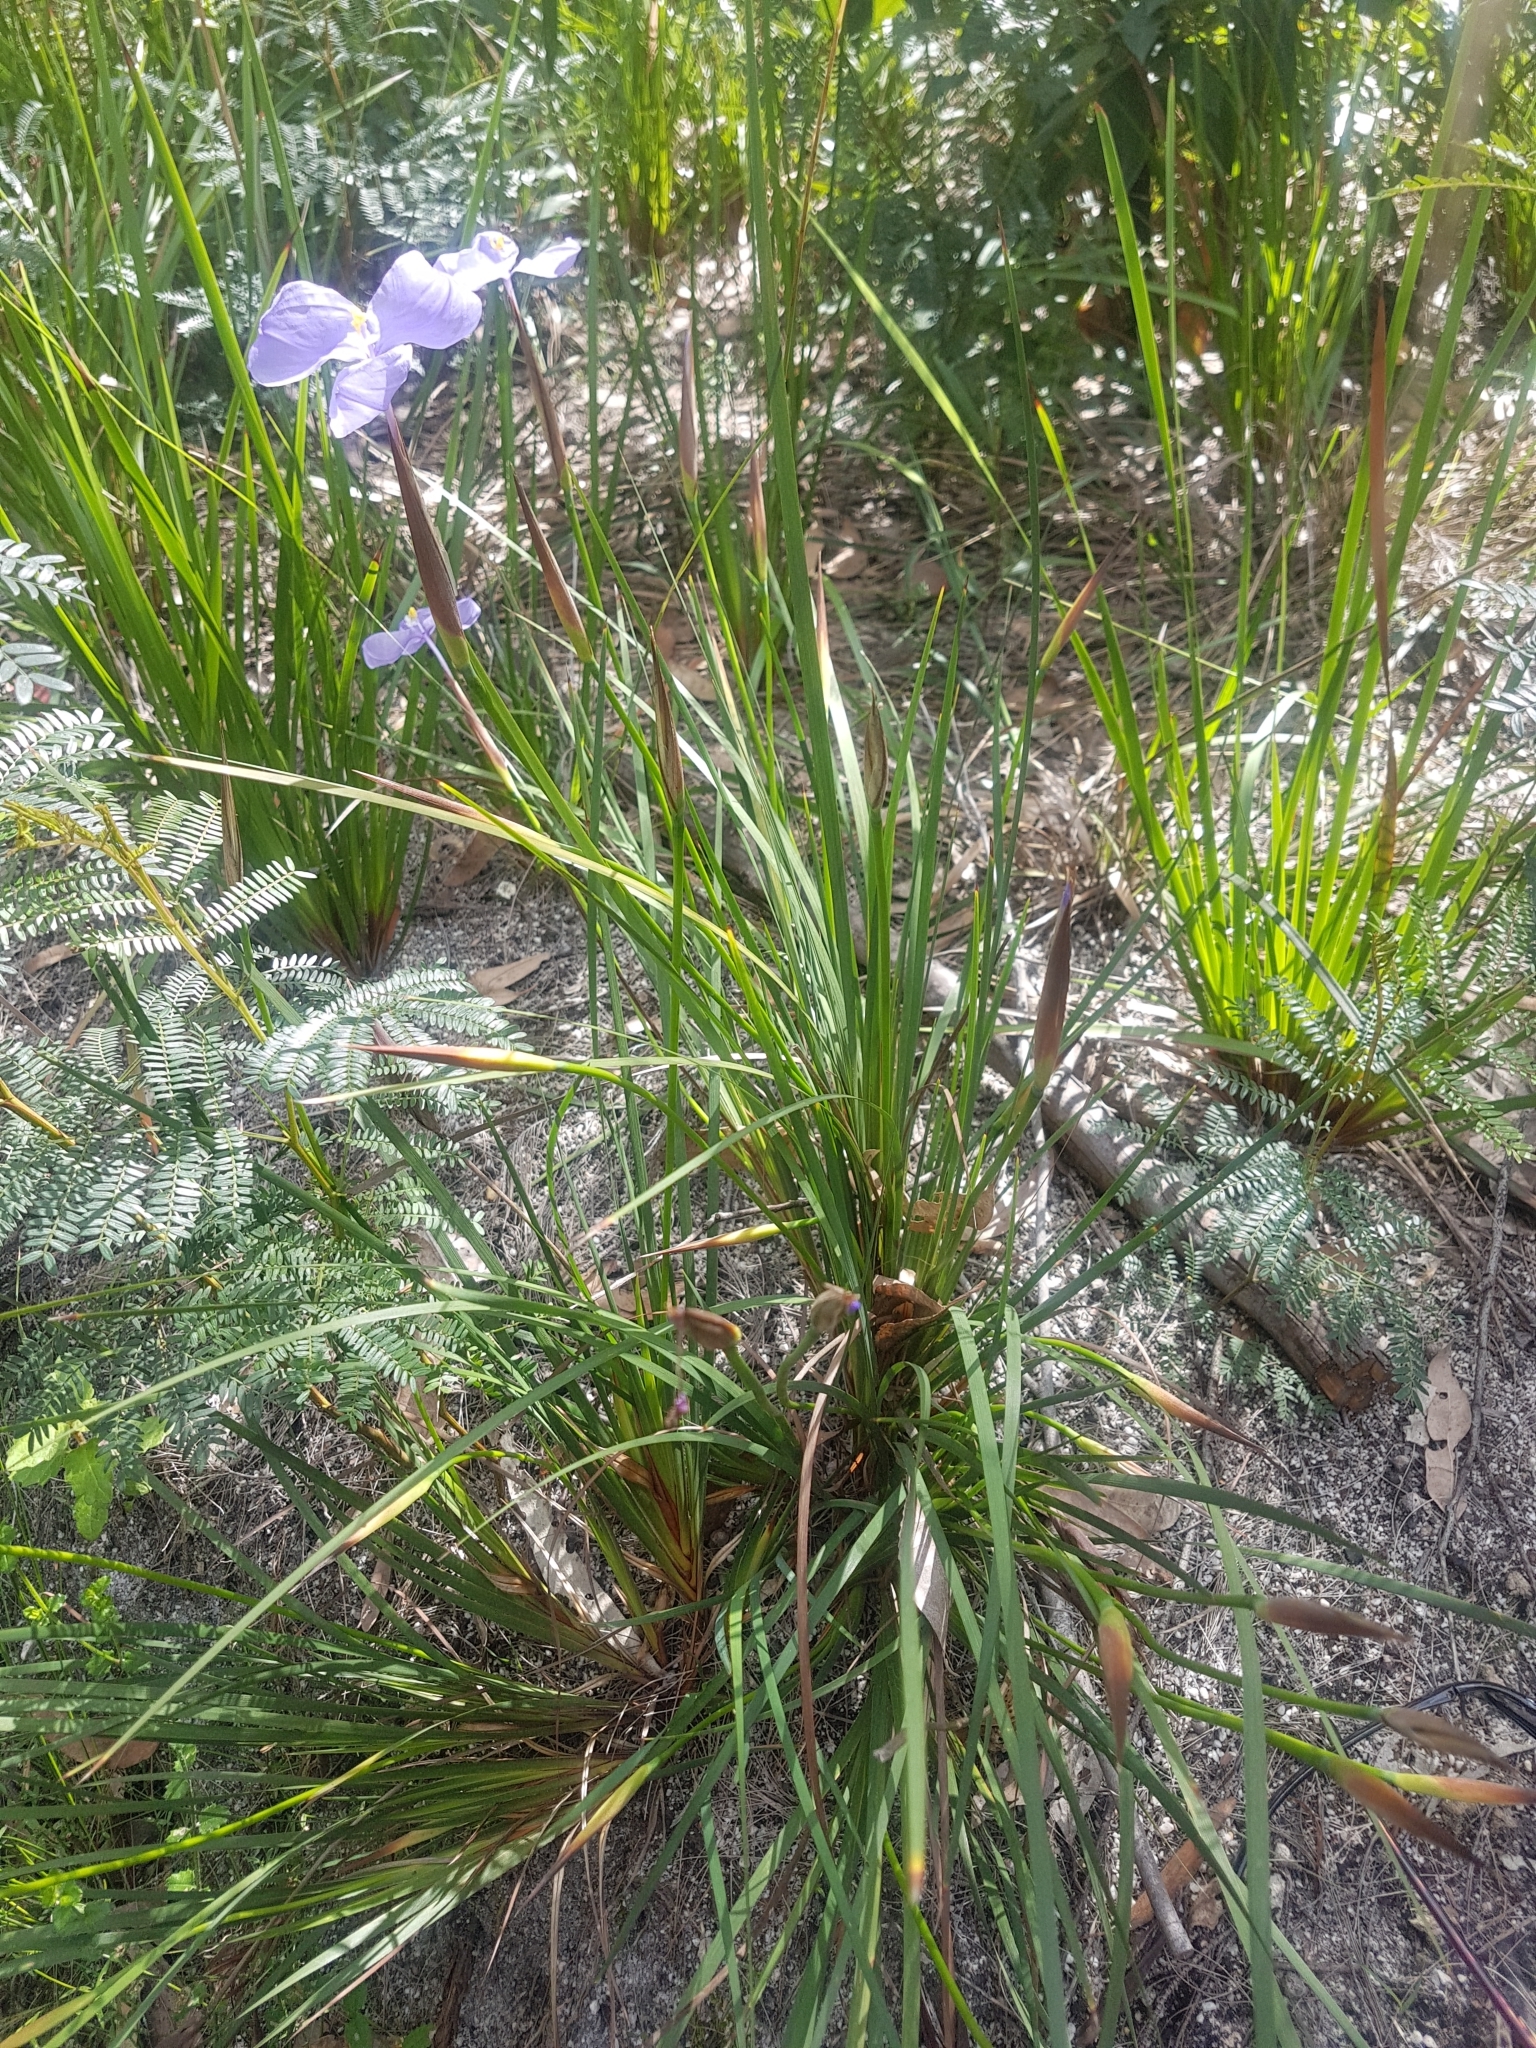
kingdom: Plantae
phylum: Tracheophyta
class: Liliopsida
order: Asparagales
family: Iridaceae
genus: Patersonia
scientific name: Patersonia glabrata
